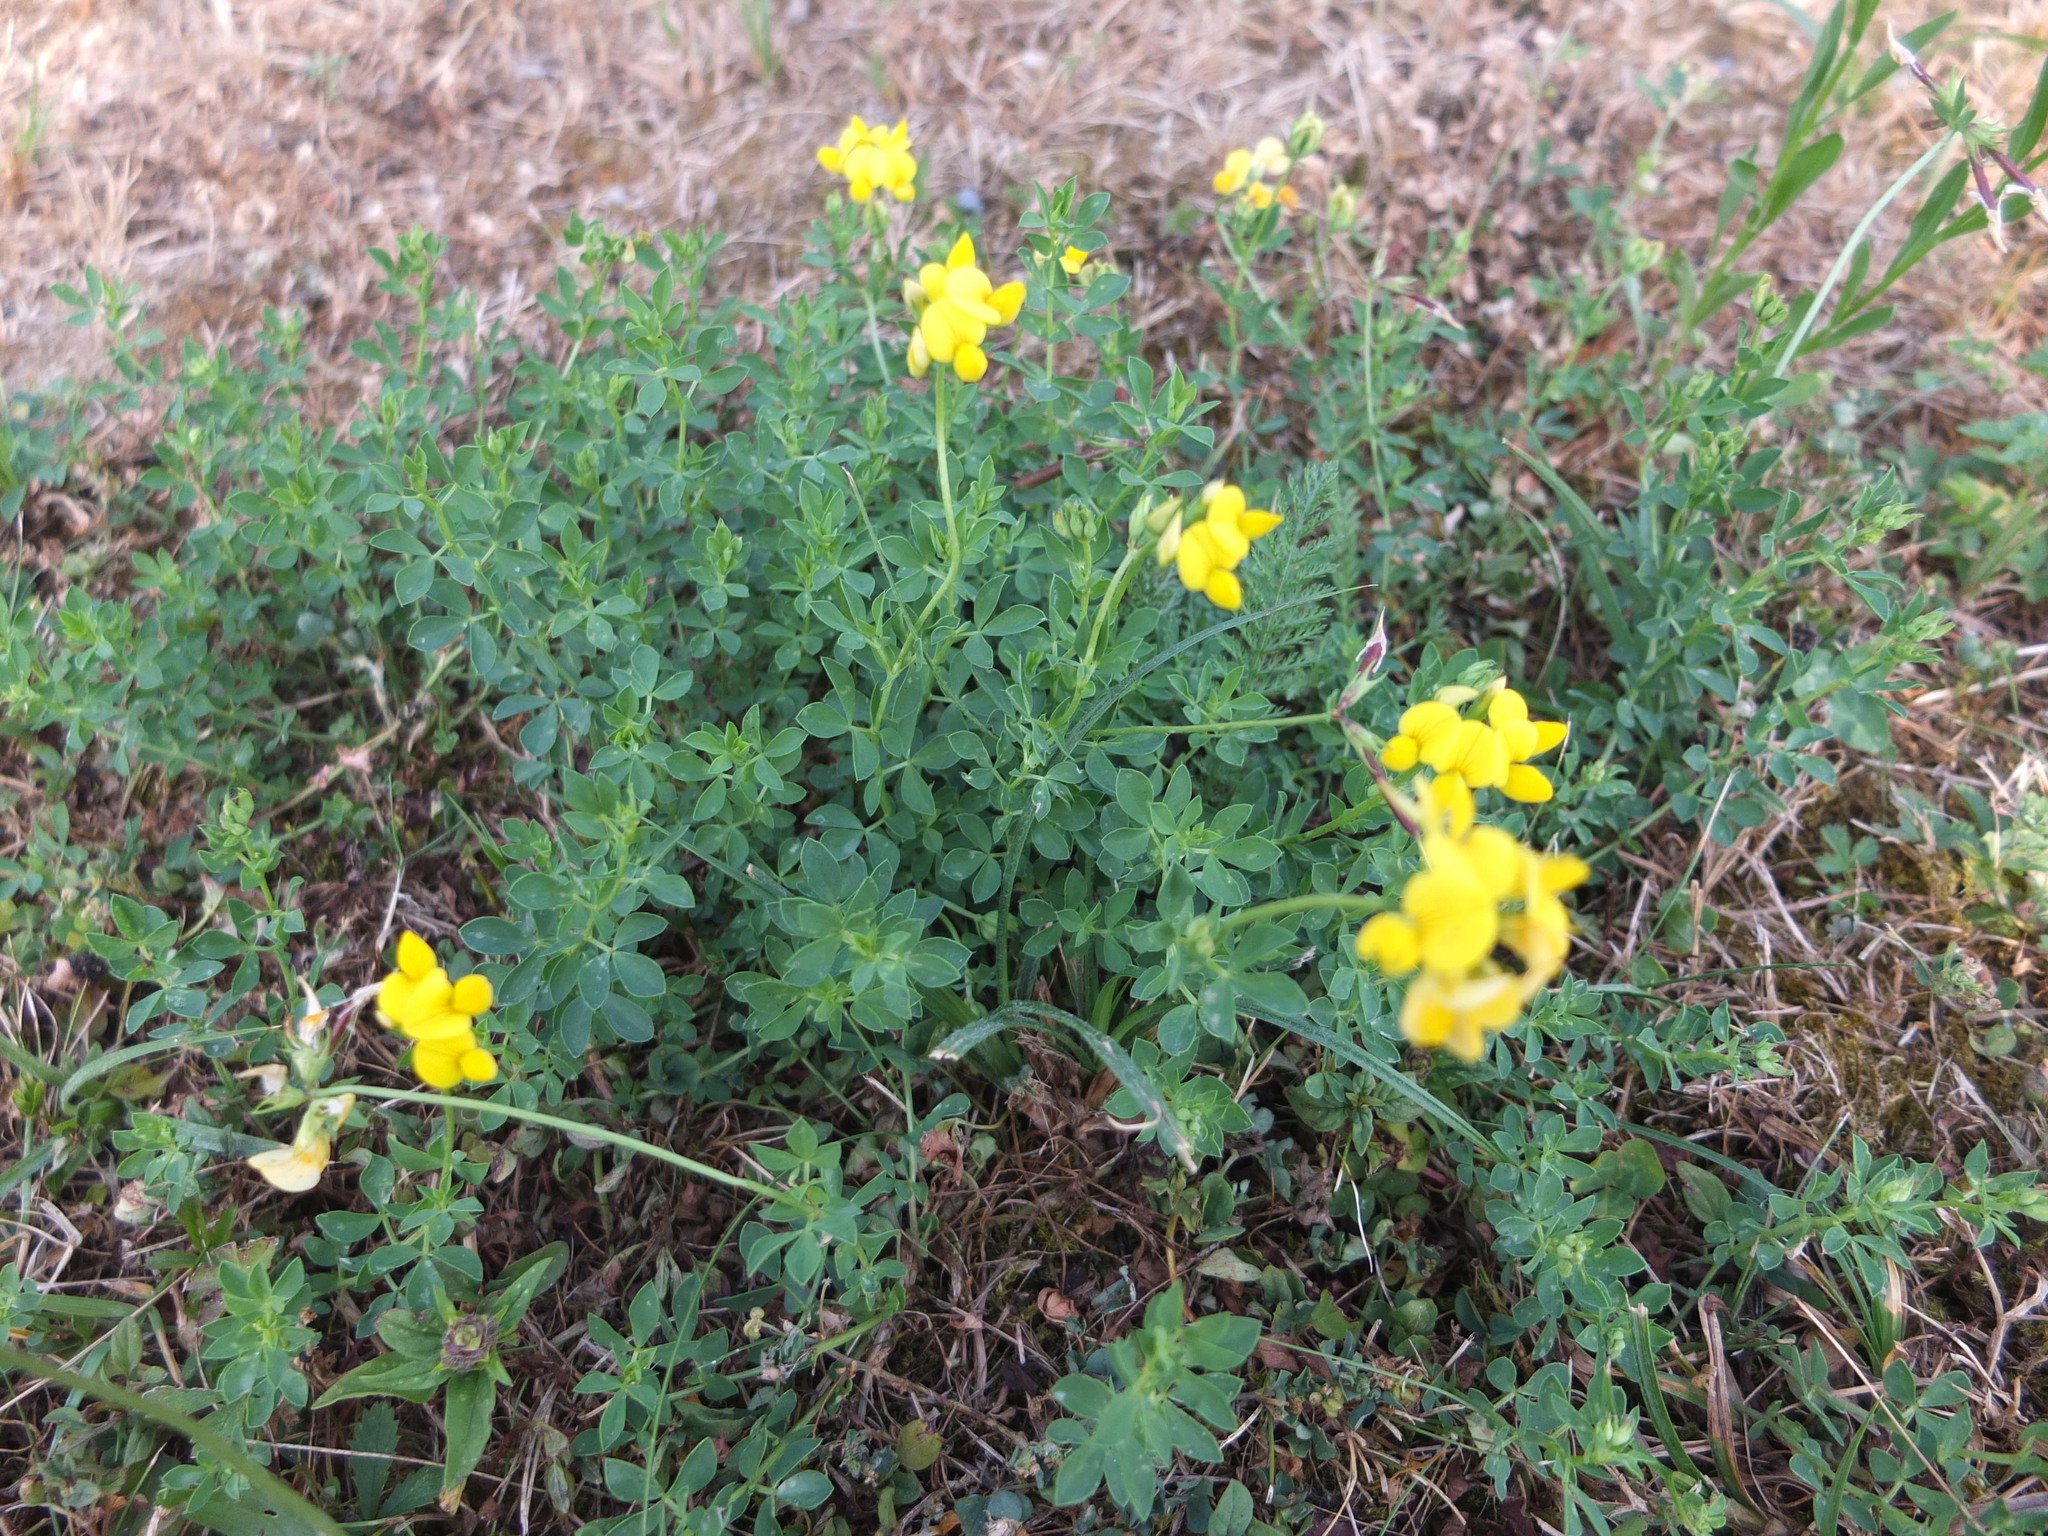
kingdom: Plantae
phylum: Tracheophyta
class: Magnoliopsida
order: Fabales
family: Fabaceae
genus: Lotus
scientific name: Lotus corniculatus
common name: Common bird's-foot-trefoil
